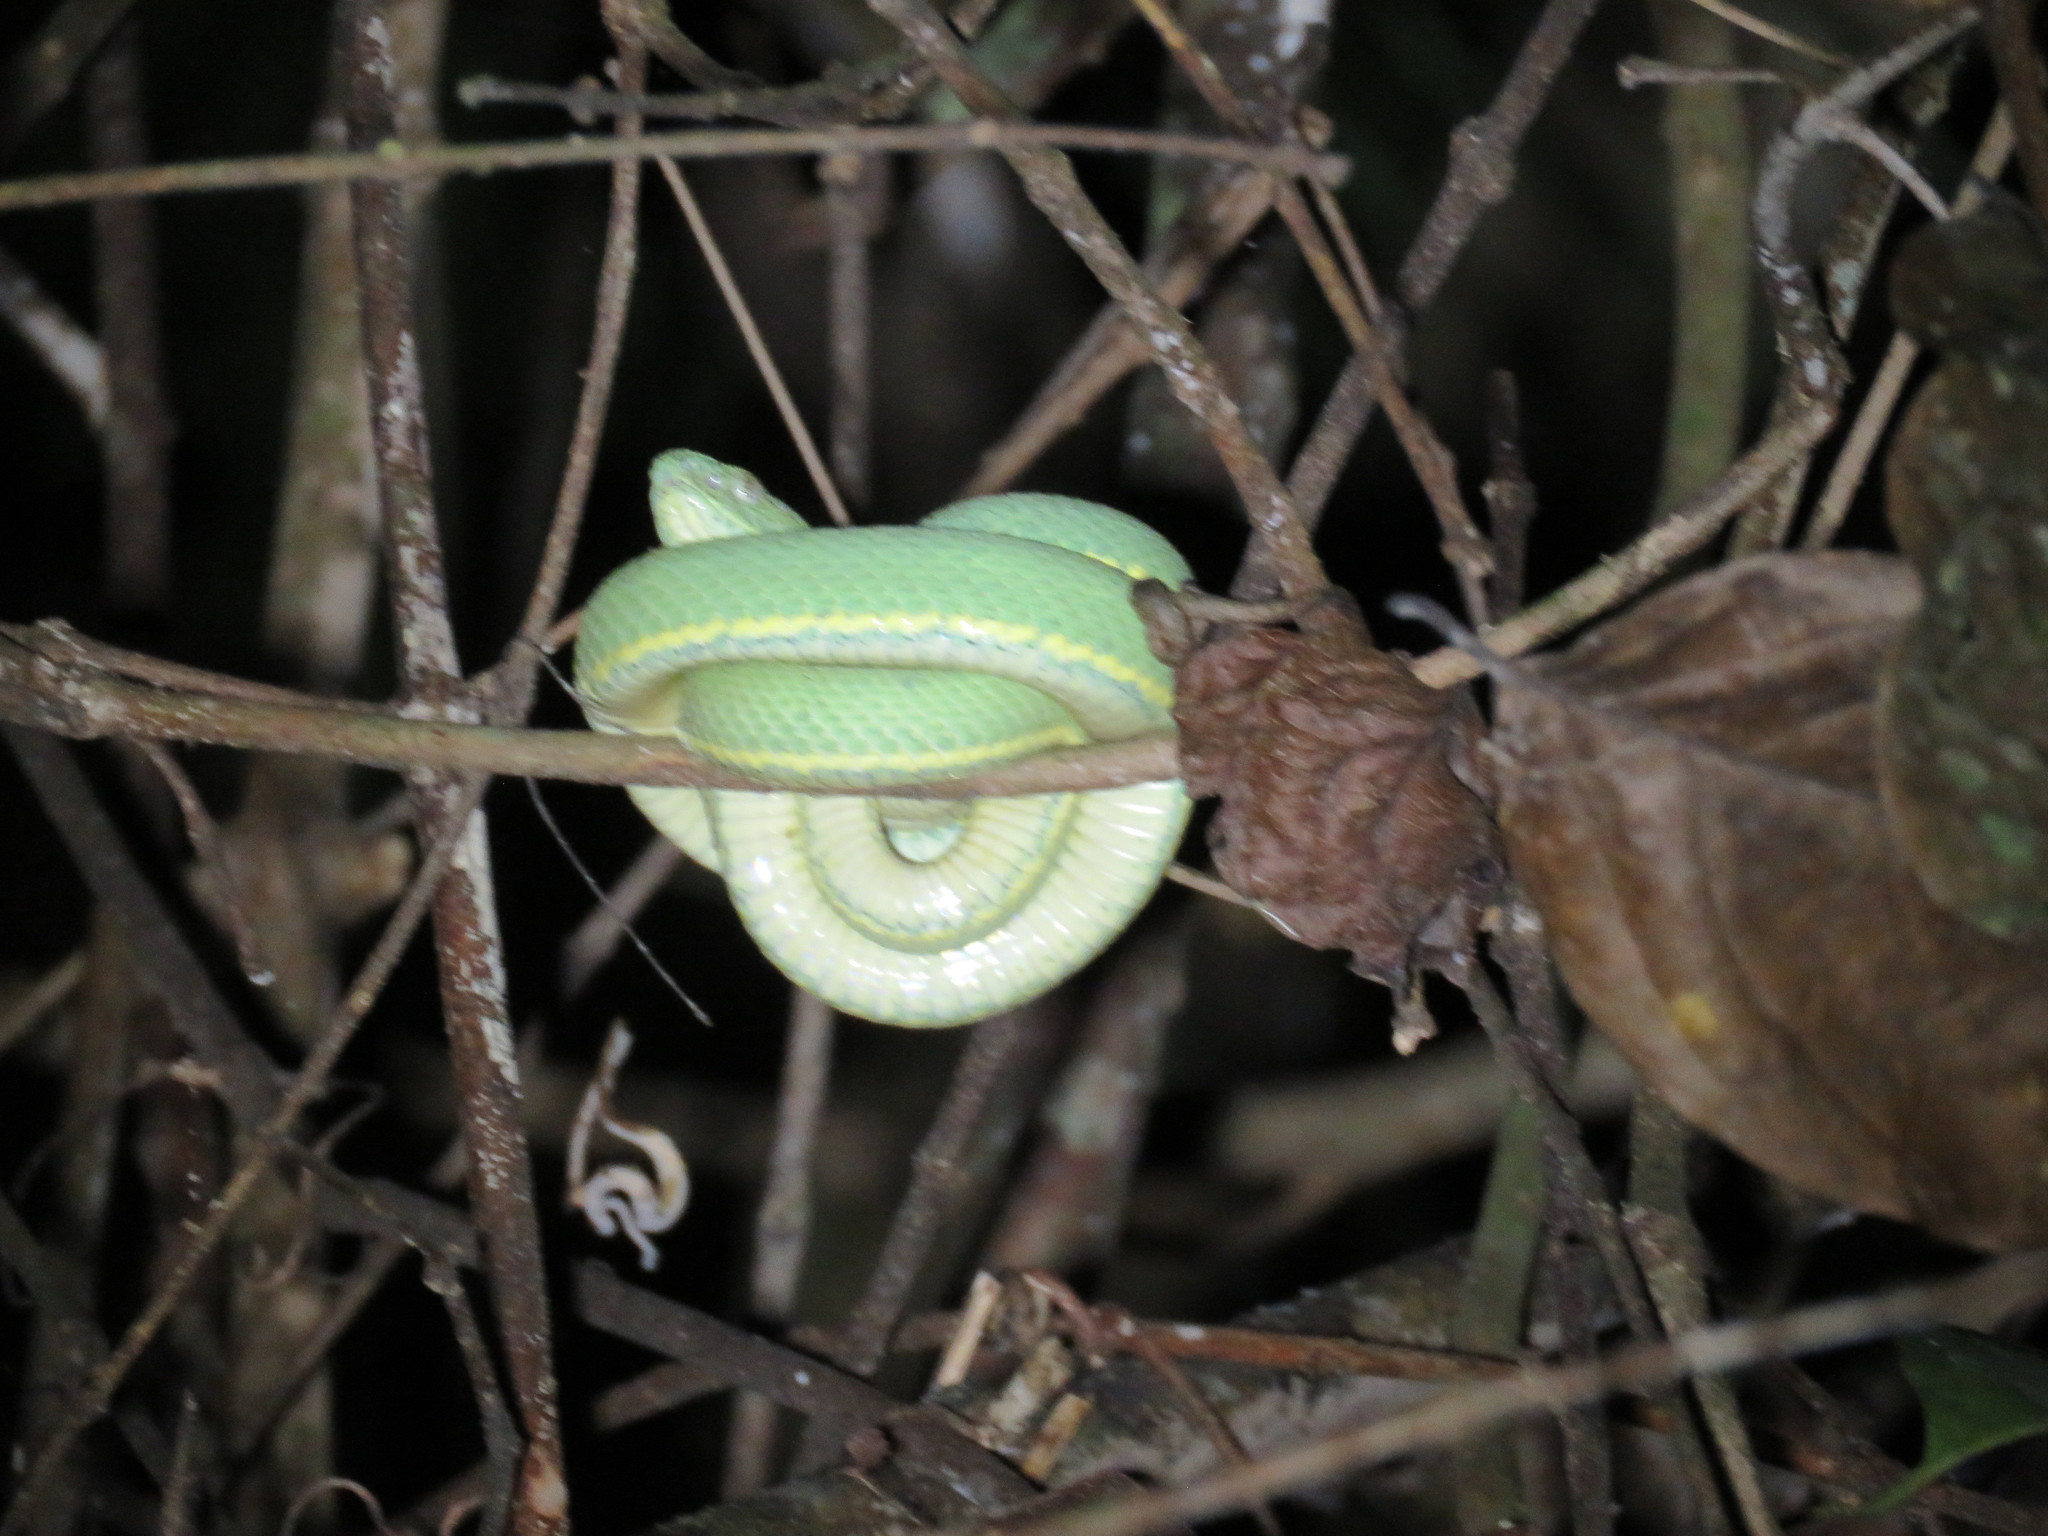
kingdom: Animalia
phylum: Chordata
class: Squamata
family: Viperidae
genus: Bothrops
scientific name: Bothrops bilineatus
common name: Green jararaca
